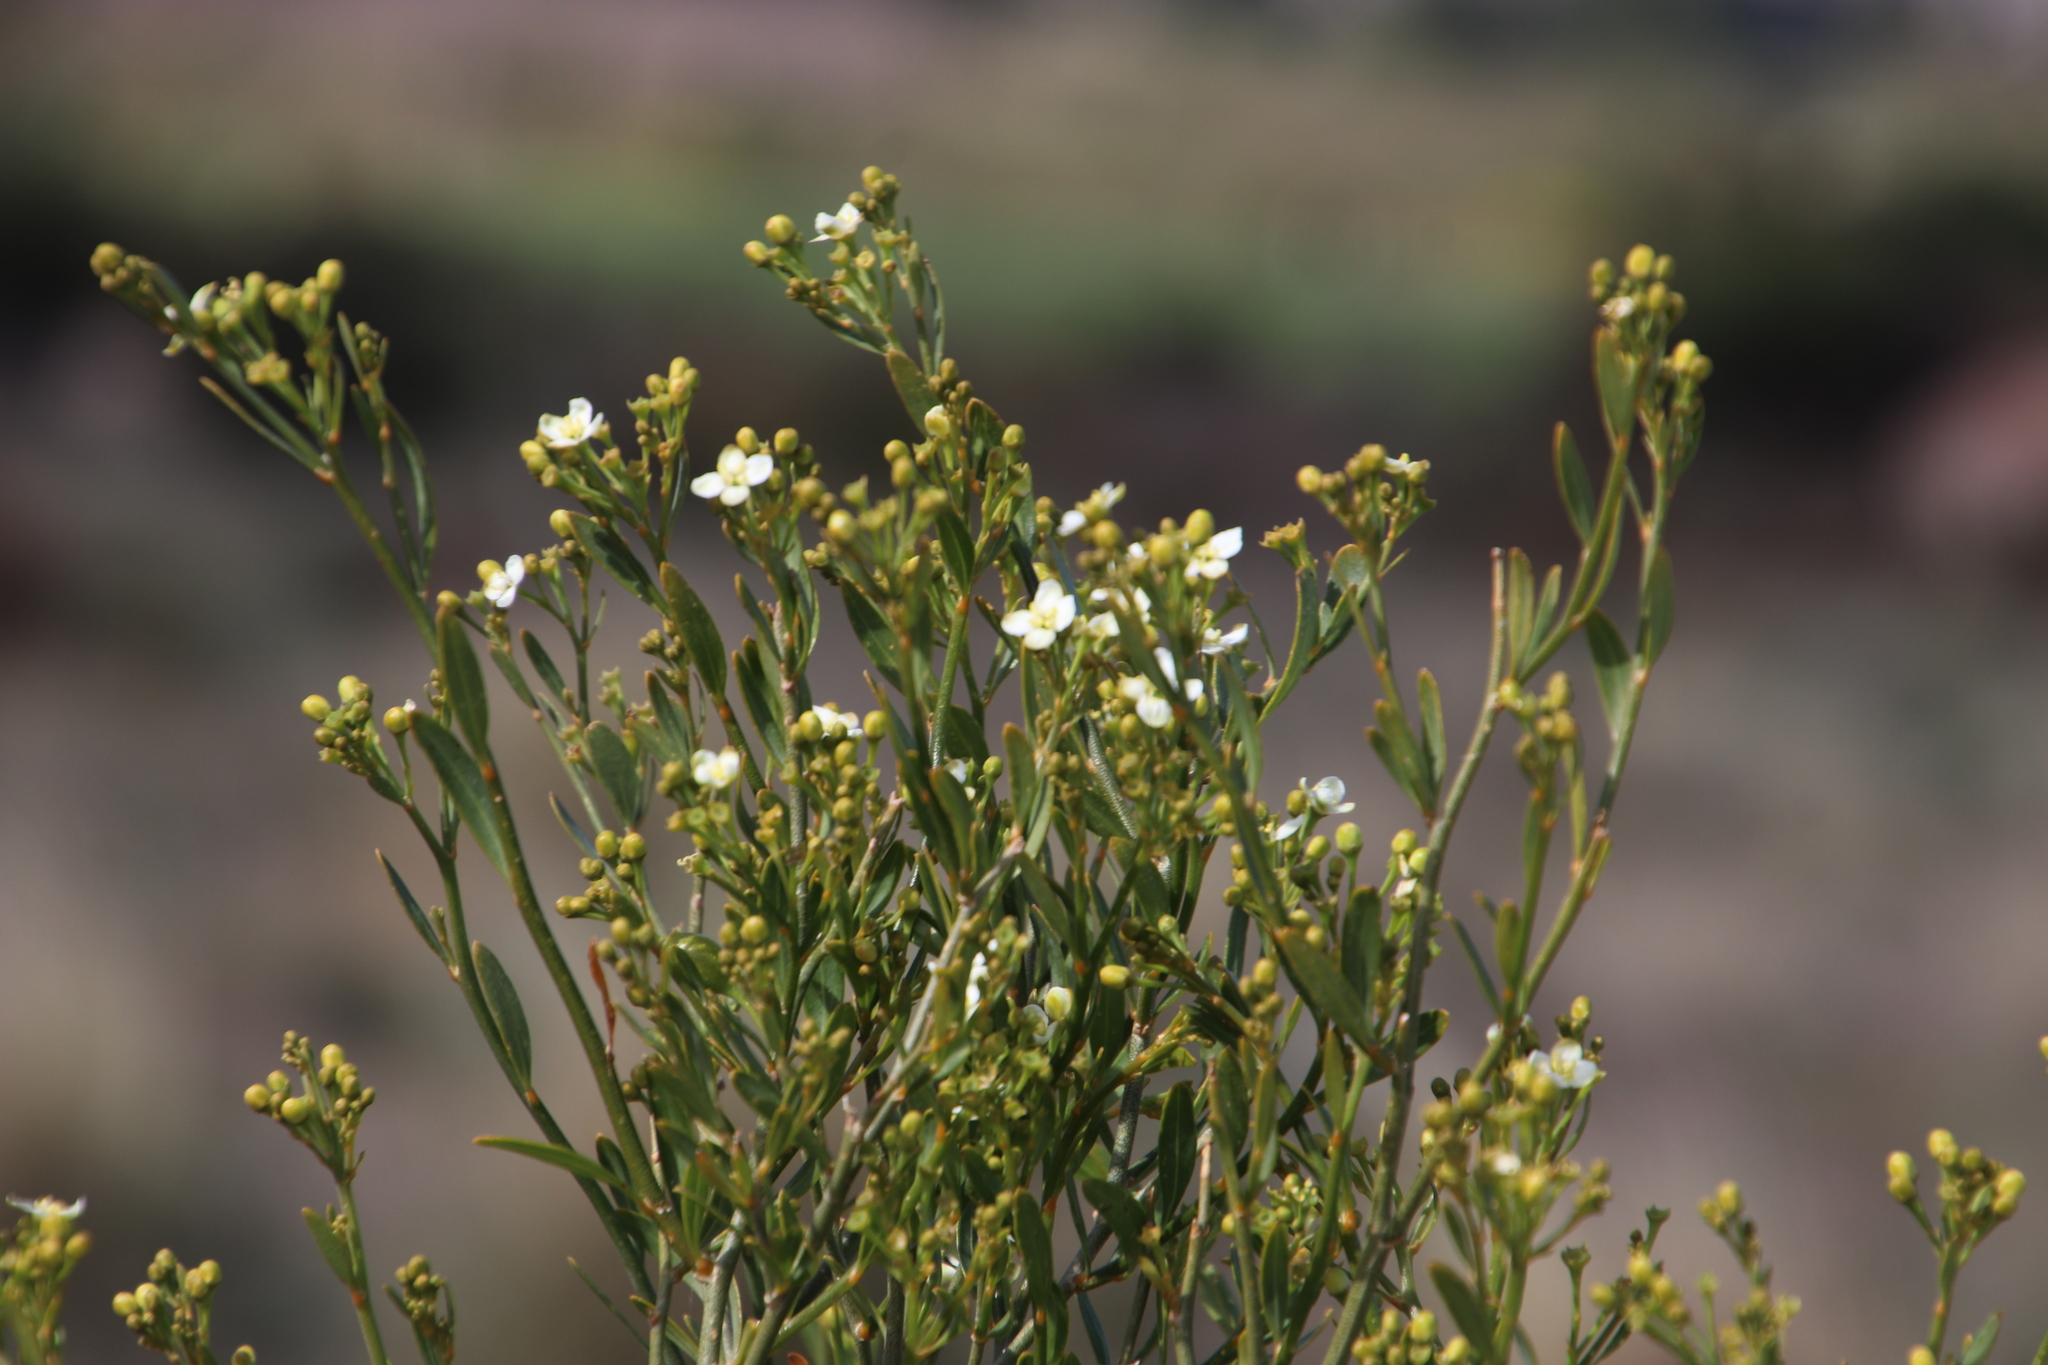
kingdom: Plantae
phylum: Tracheophyta
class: Magnoliopsida
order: Solanales
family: Montiniaceae
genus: Montinia
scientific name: Montinia caryophyllacea
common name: Wild clove-bush
